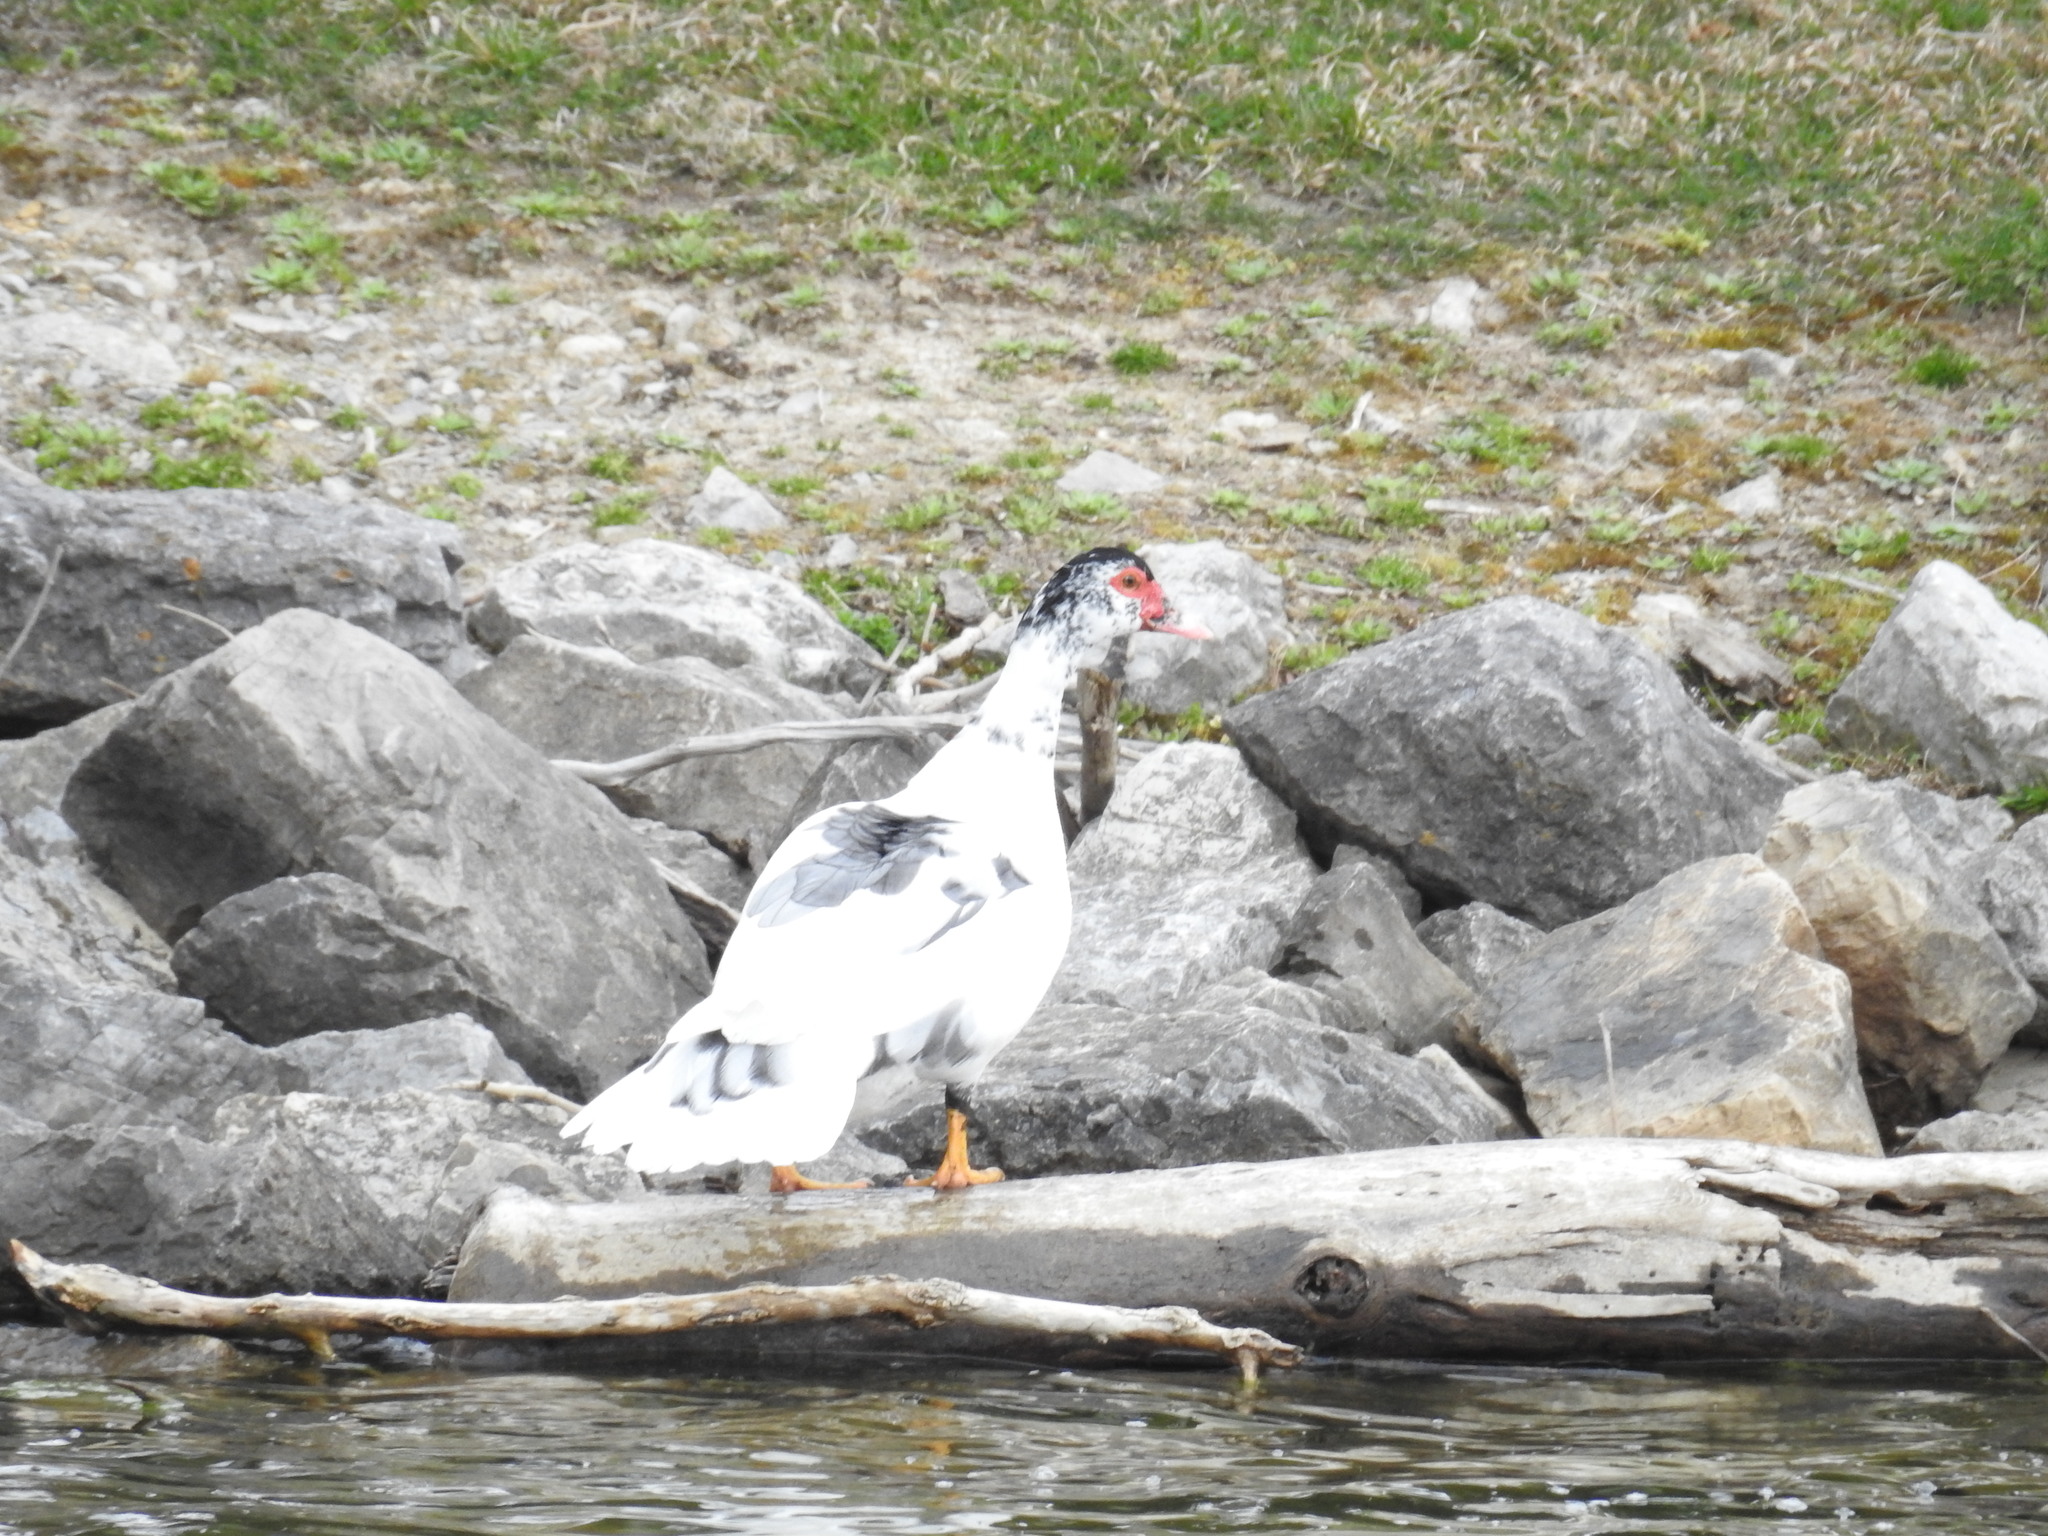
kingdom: Animalia
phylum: Chordata
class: Aves
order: Anseriformes
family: Anatidae
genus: Cairina
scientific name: Cairina moschata
